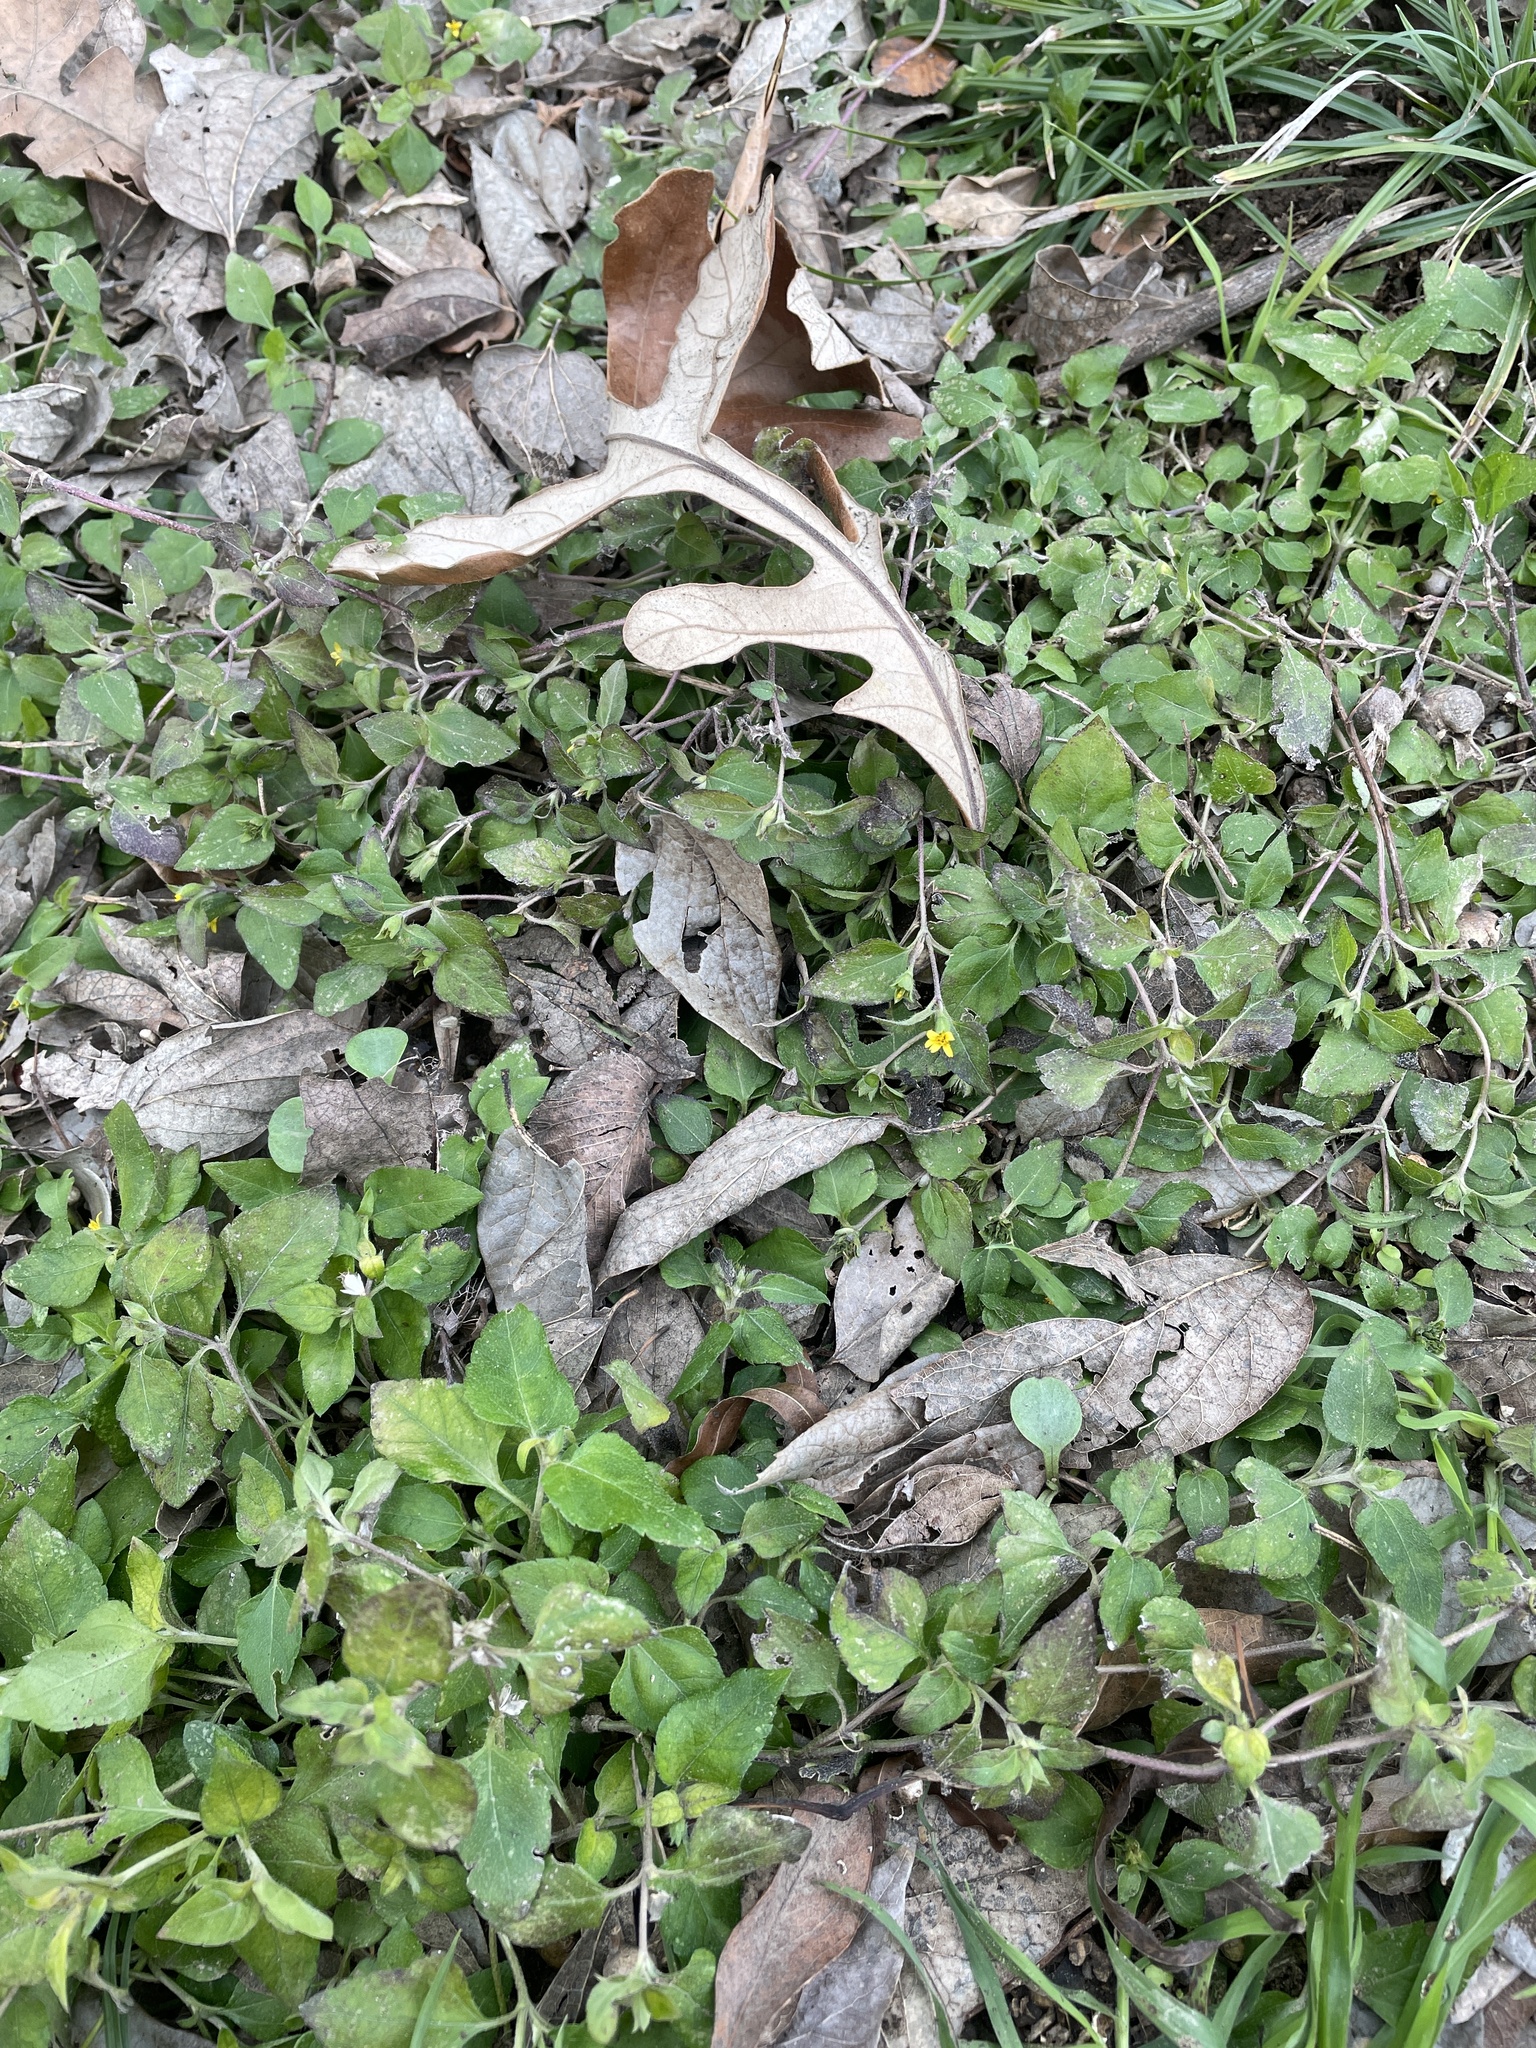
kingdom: Plantae
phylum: Tracheophyta
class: Magnoliopsida
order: Asterales
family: Asteraceae
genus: Calyptocarpus
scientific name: Calyptocarpus vialis
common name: Straggler daisy
